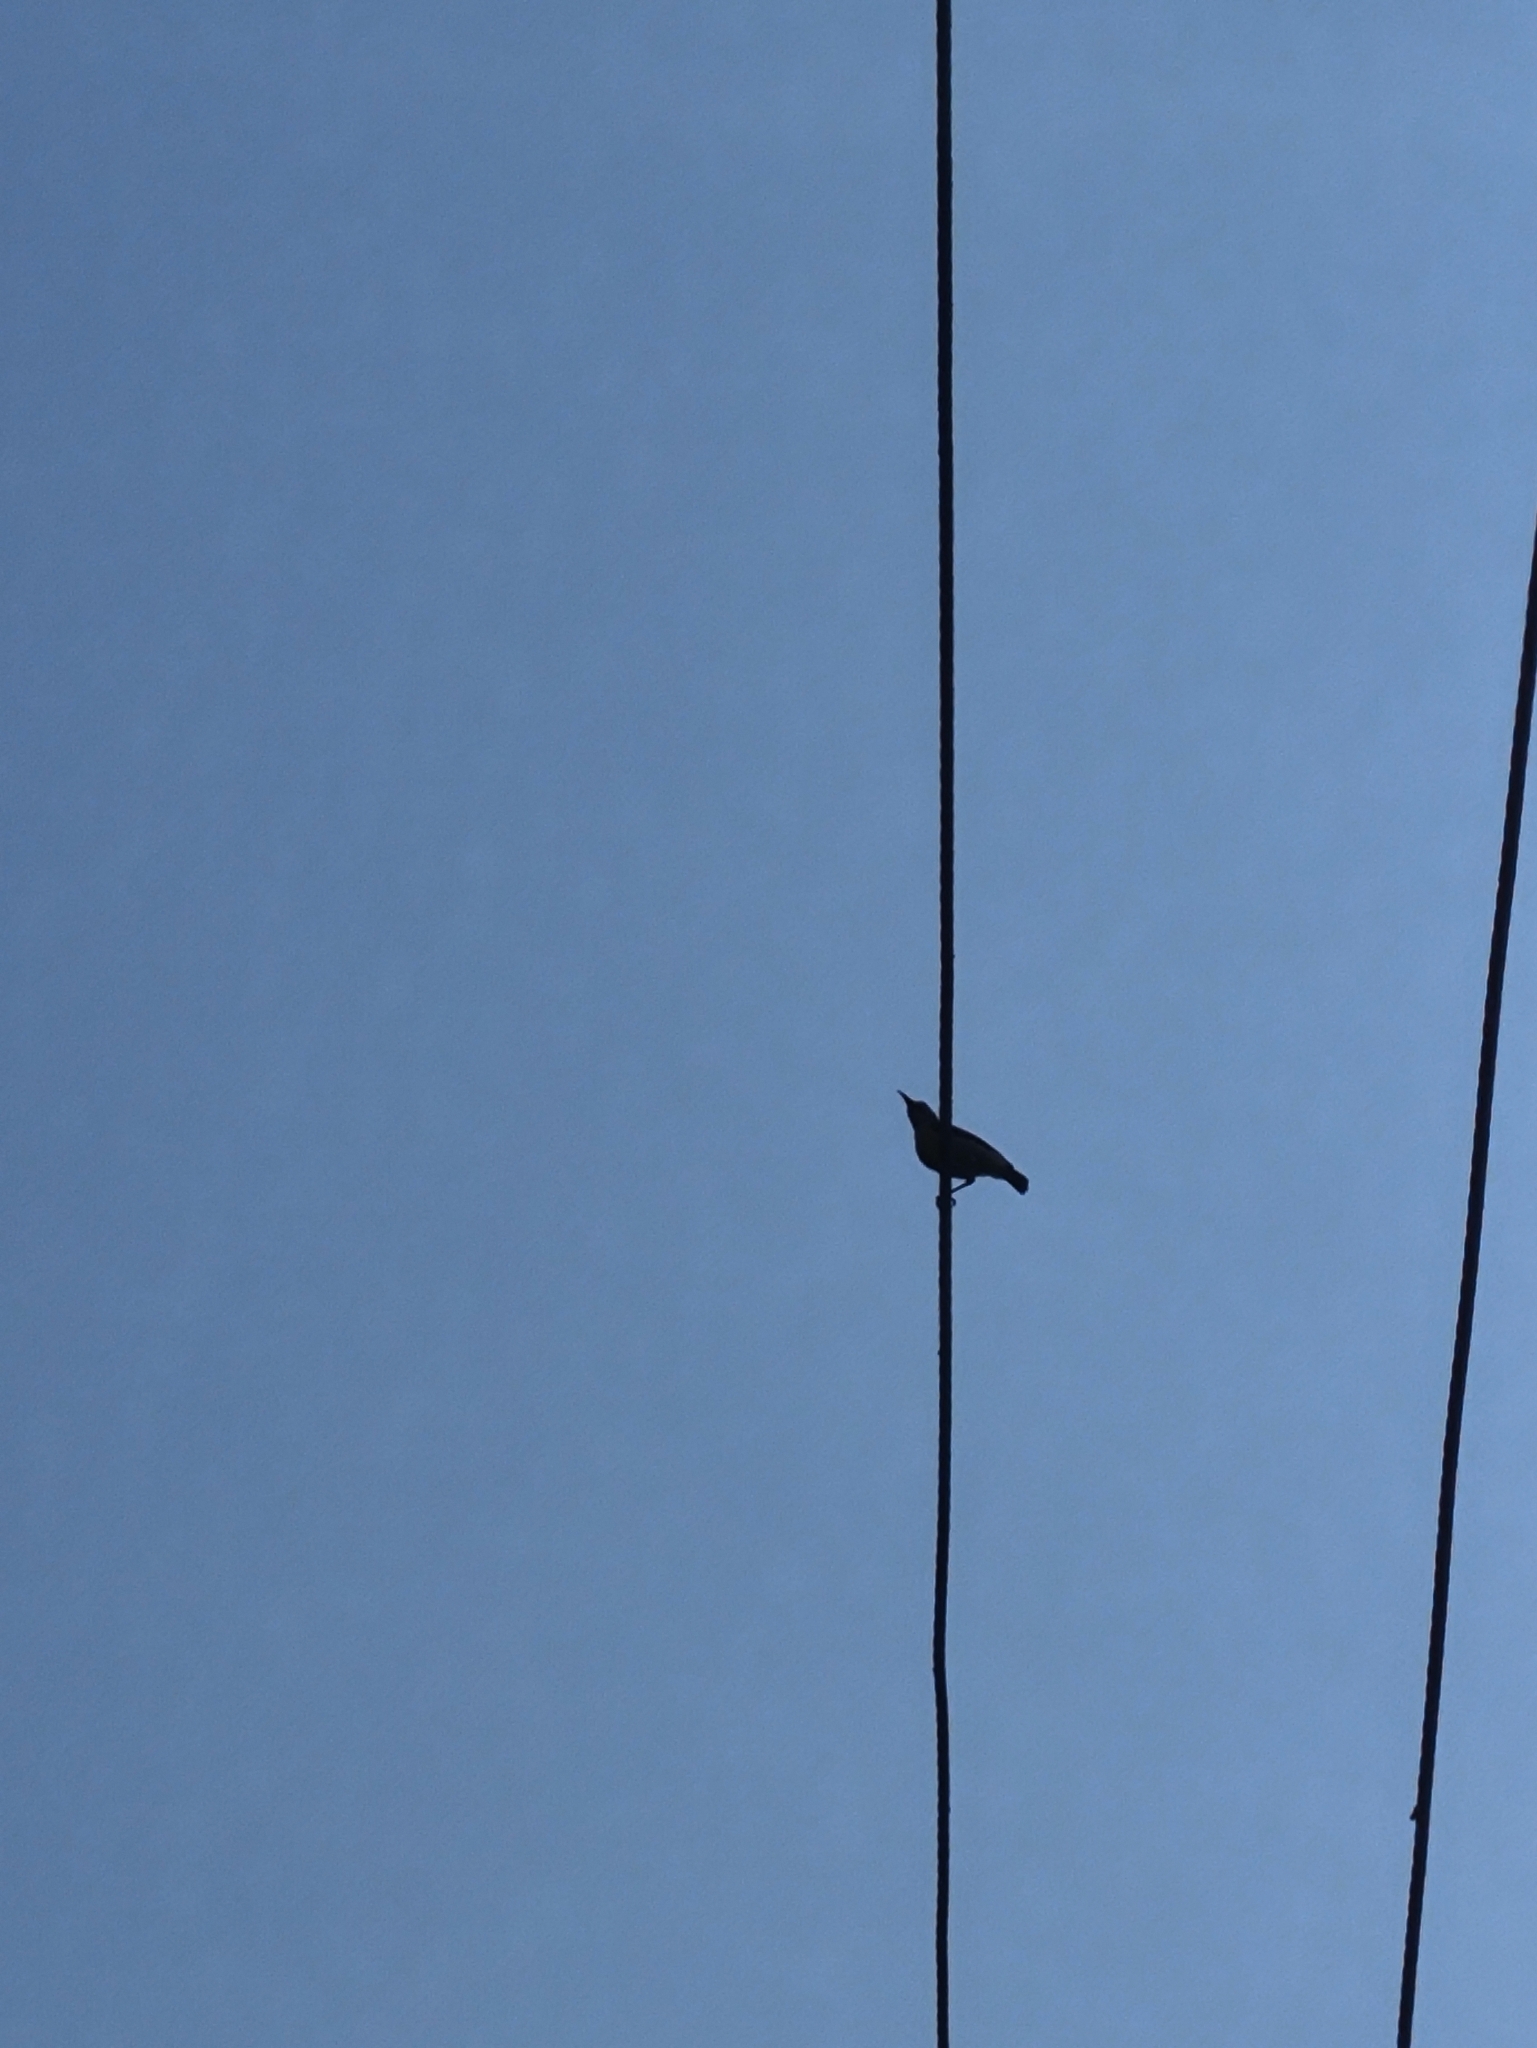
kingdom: Animalia
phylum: Chordata
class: Aves
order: Passeriformes
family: Nectariniidae
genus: Leptocoma
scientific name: Leptocoma zeylonica
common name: Purple-rumped sunbird
